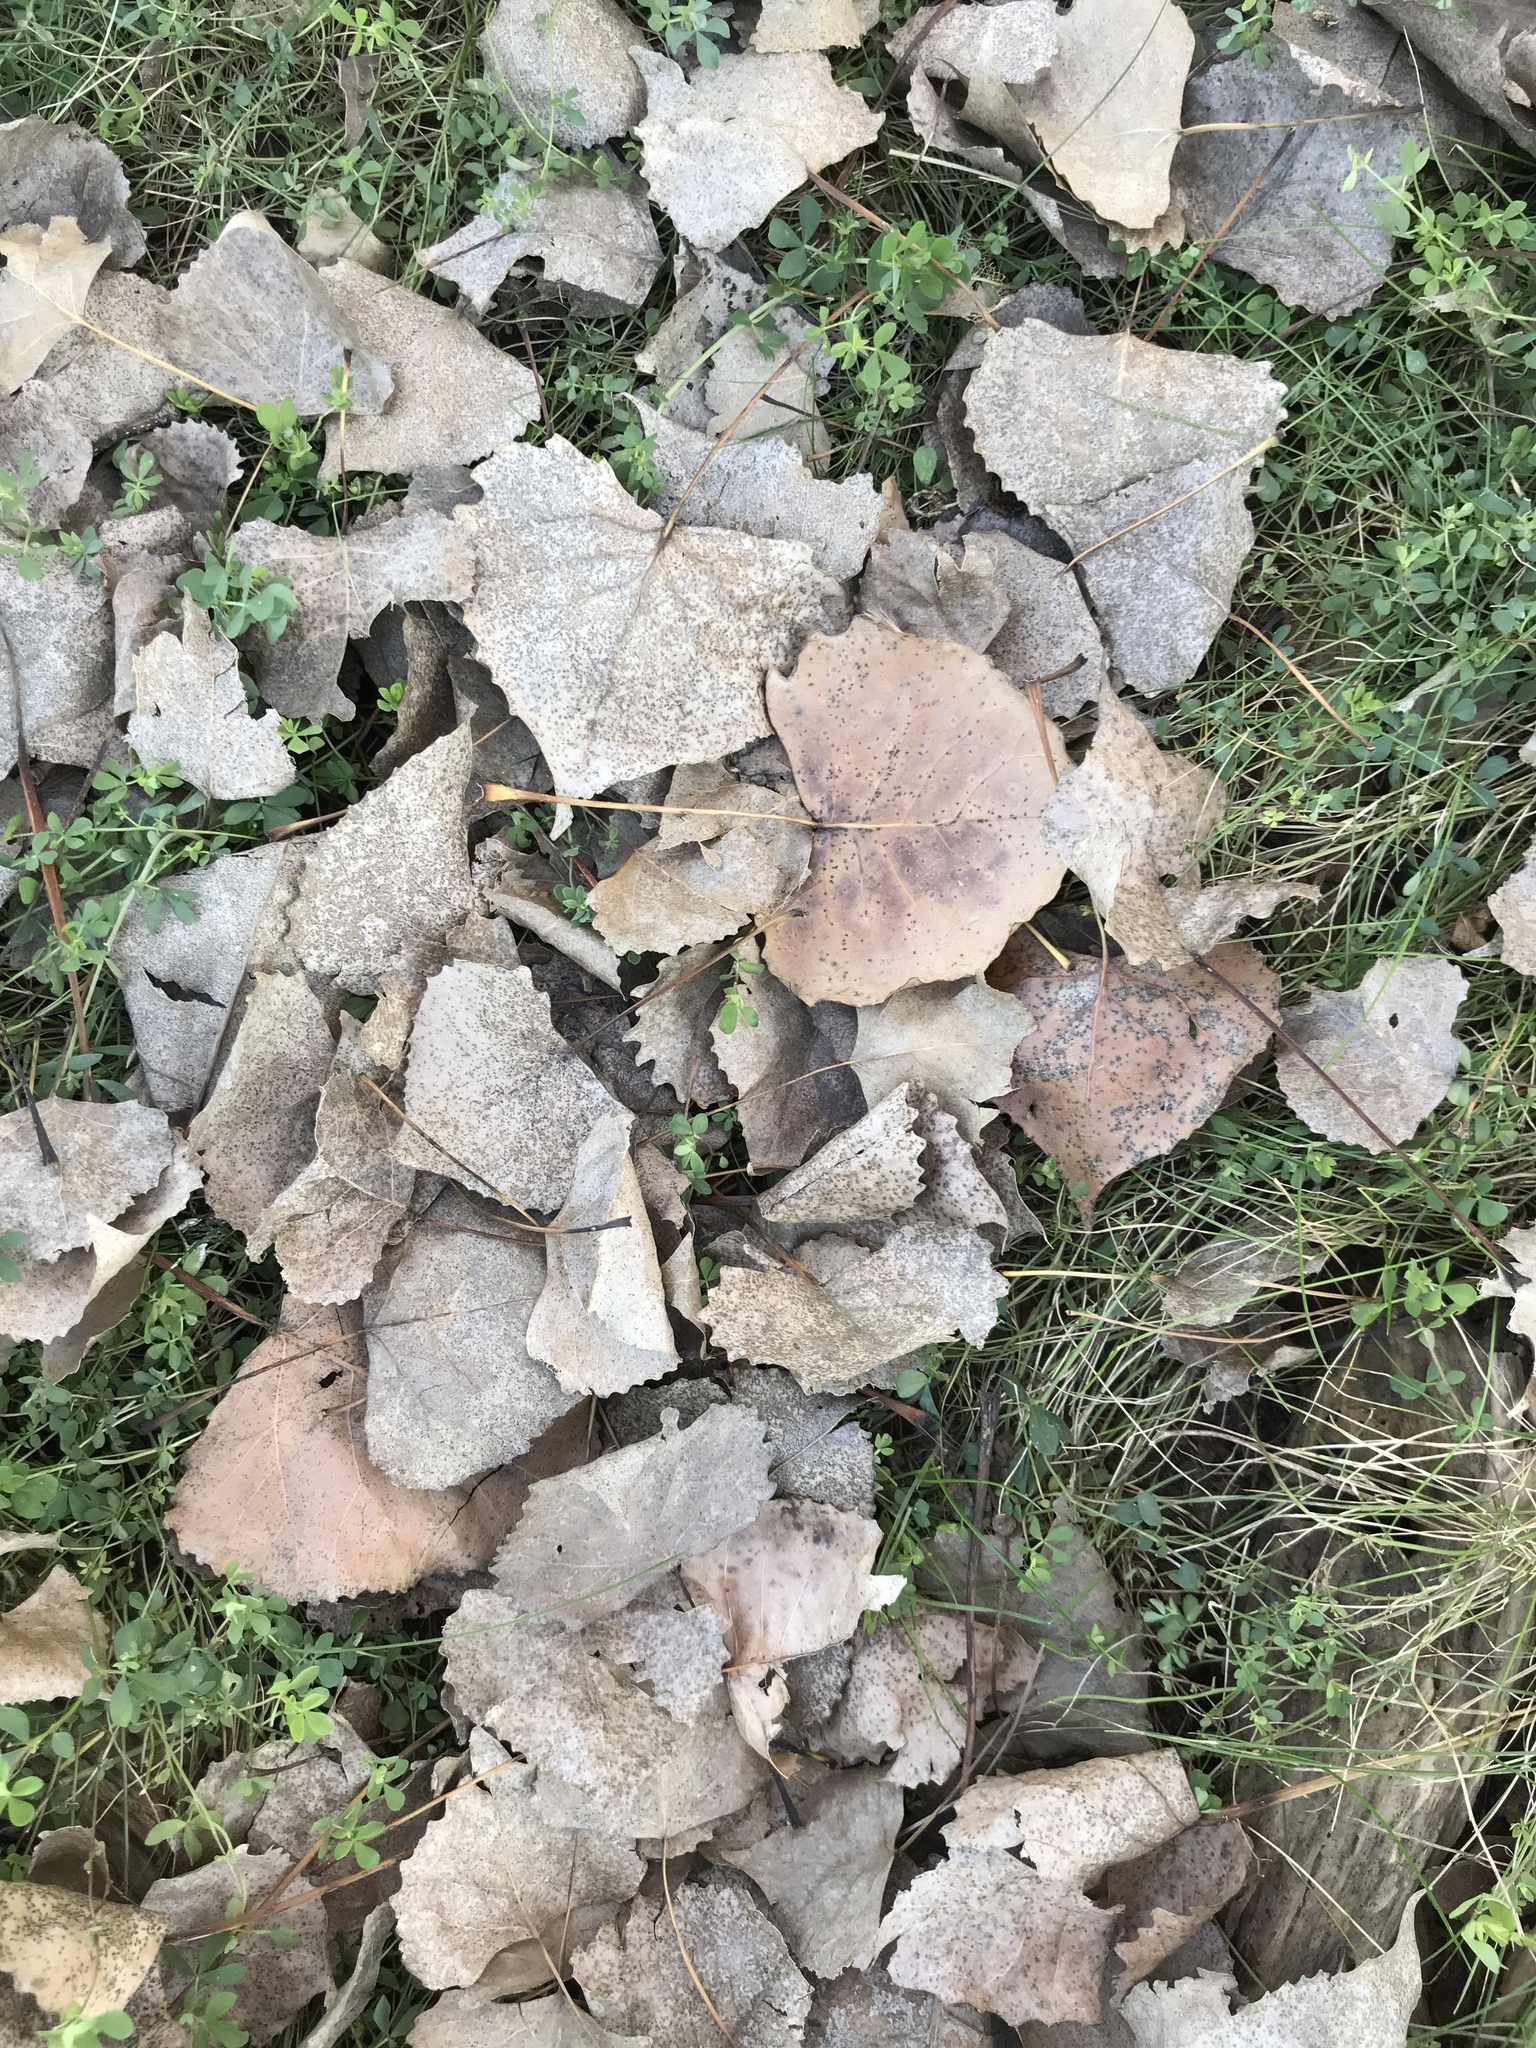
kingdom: Plantae
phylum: Tracheophyta
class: Magnoliopsida
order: Malpighiales
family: Salicaceae
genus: Populus
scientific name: Populus deltoides
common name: Eastern cottonwood
